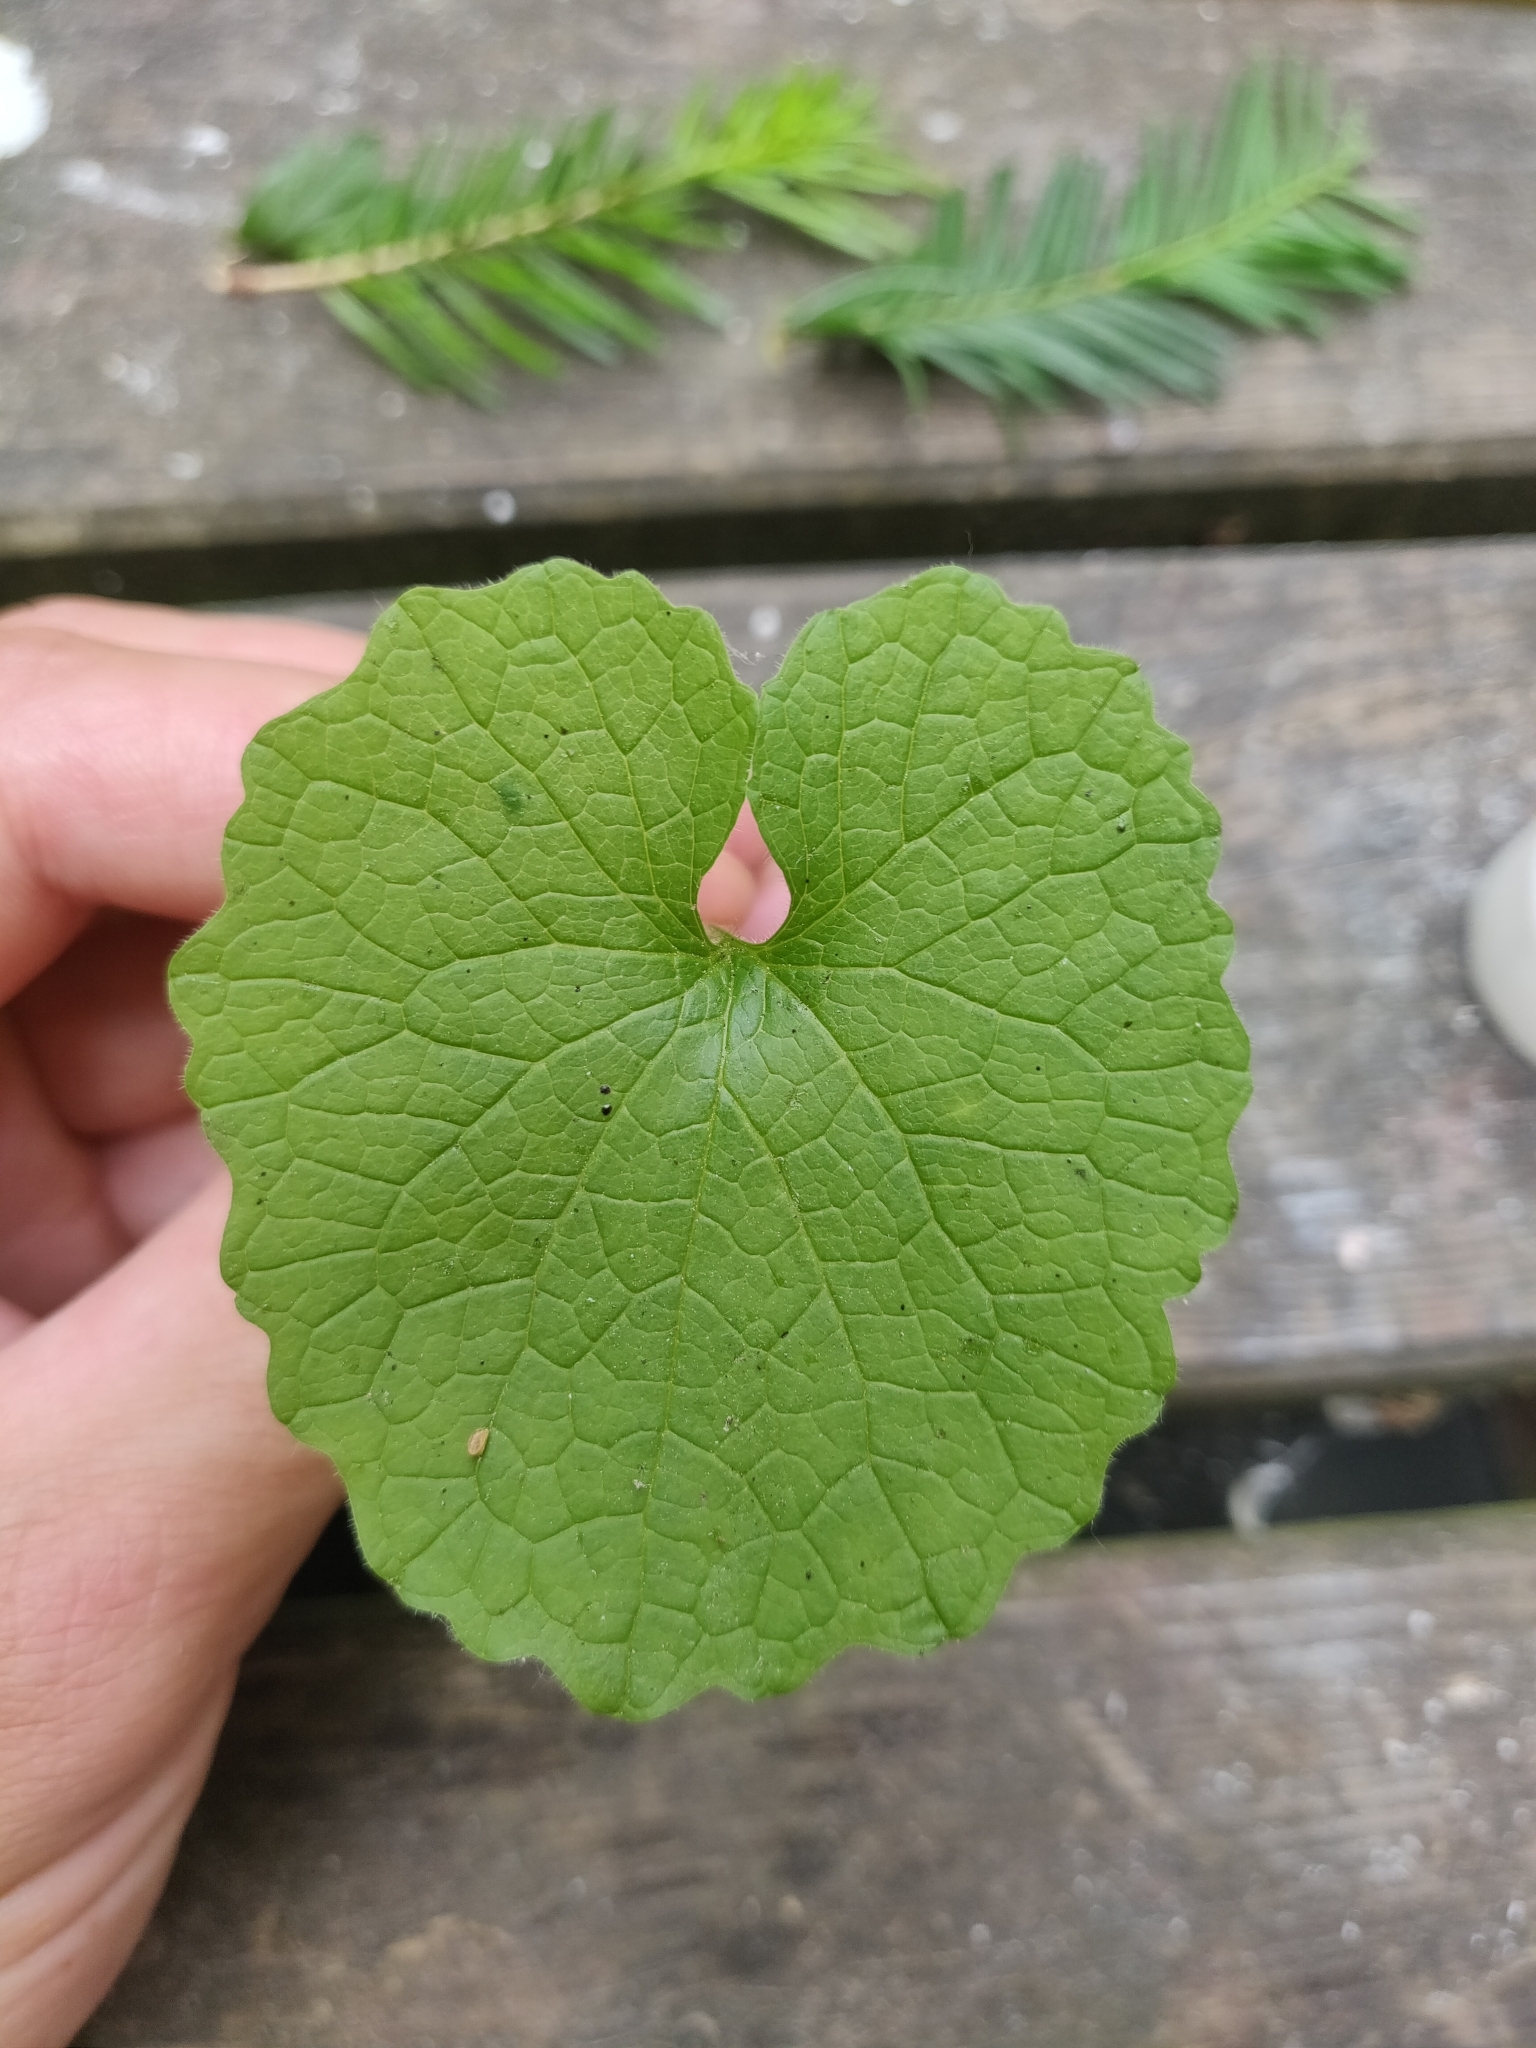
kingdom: Plantae
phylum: Tracheophyta
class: Magnoliopsida
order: Brassicales
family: Brassicaceae
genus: Alliaria
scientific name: Alliaria petiolata
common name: Garlic mustard
